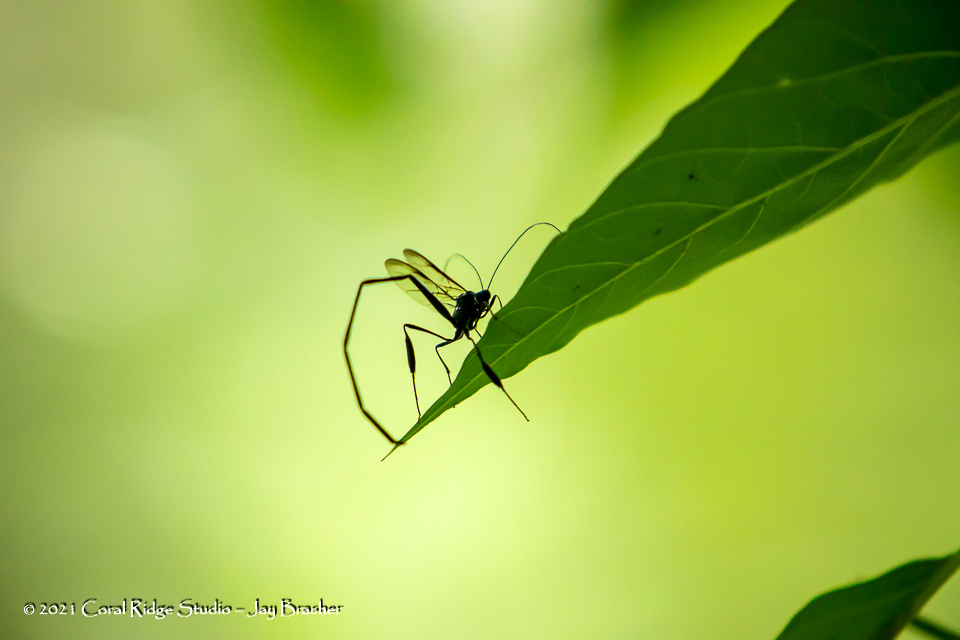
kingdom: Animalia
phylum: Arthropoda
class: Insecta
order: Hymenoptera
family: Pelecinidae
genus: Pelecinus
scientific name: Pelecinus polyturator
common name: American pelecinid wasp
